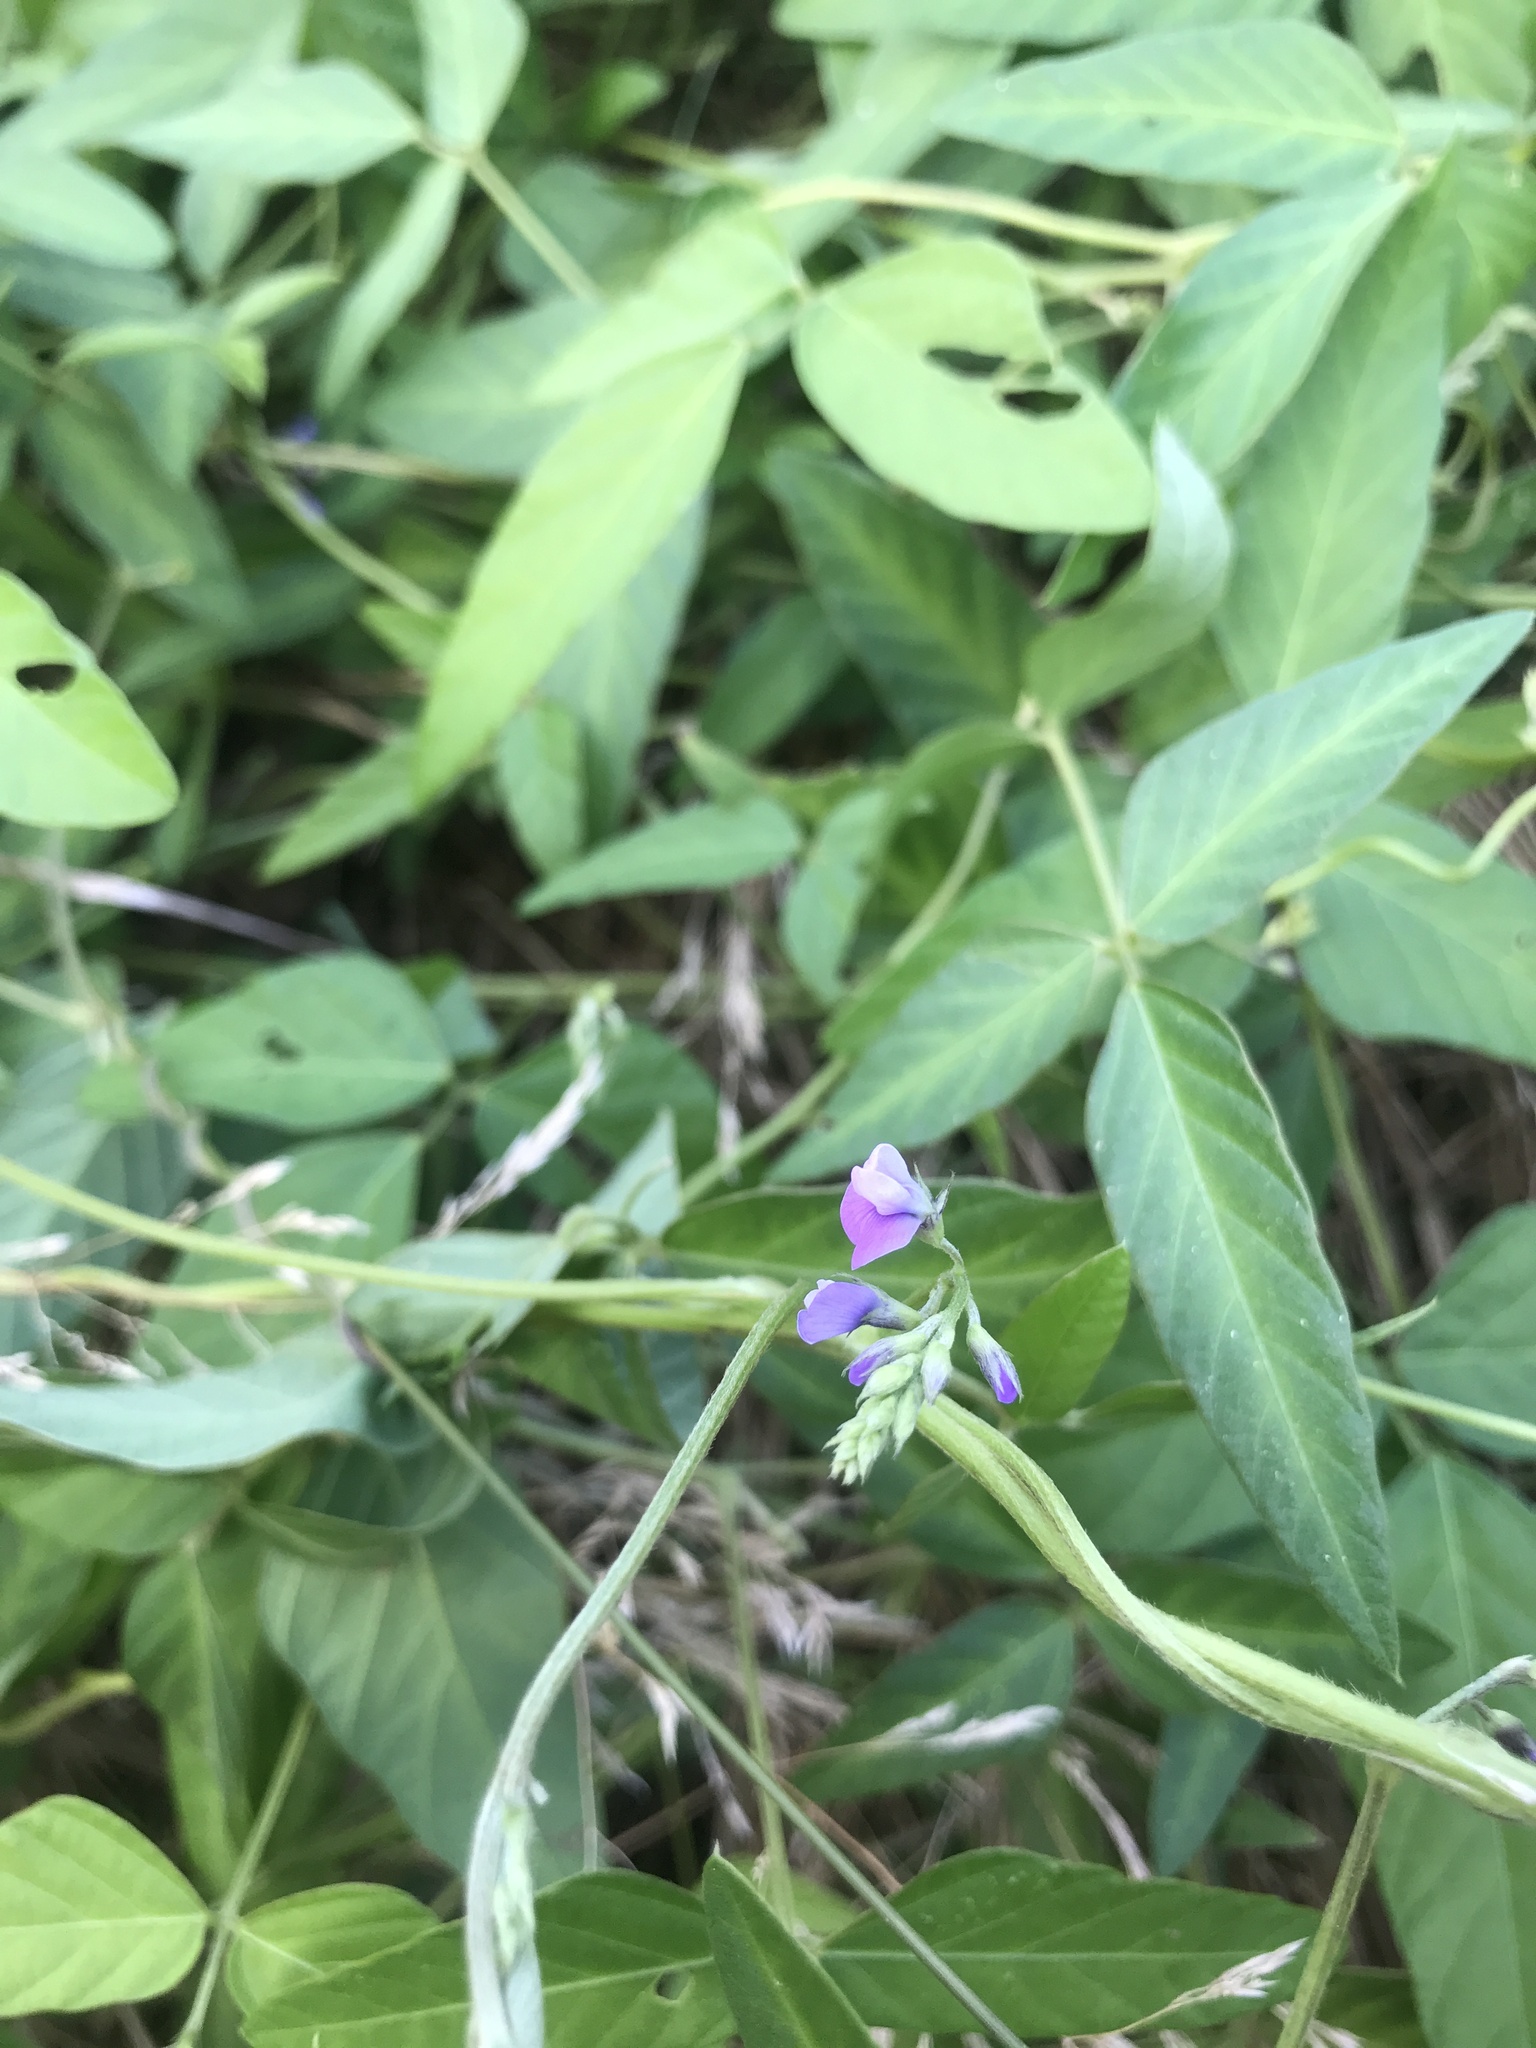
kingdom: Plantae
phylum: Tracheophyta
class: Magnoliopsida
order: Fabales
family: Fabaceae
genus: Glycine
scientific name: Glycine max
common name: Soya-bean
